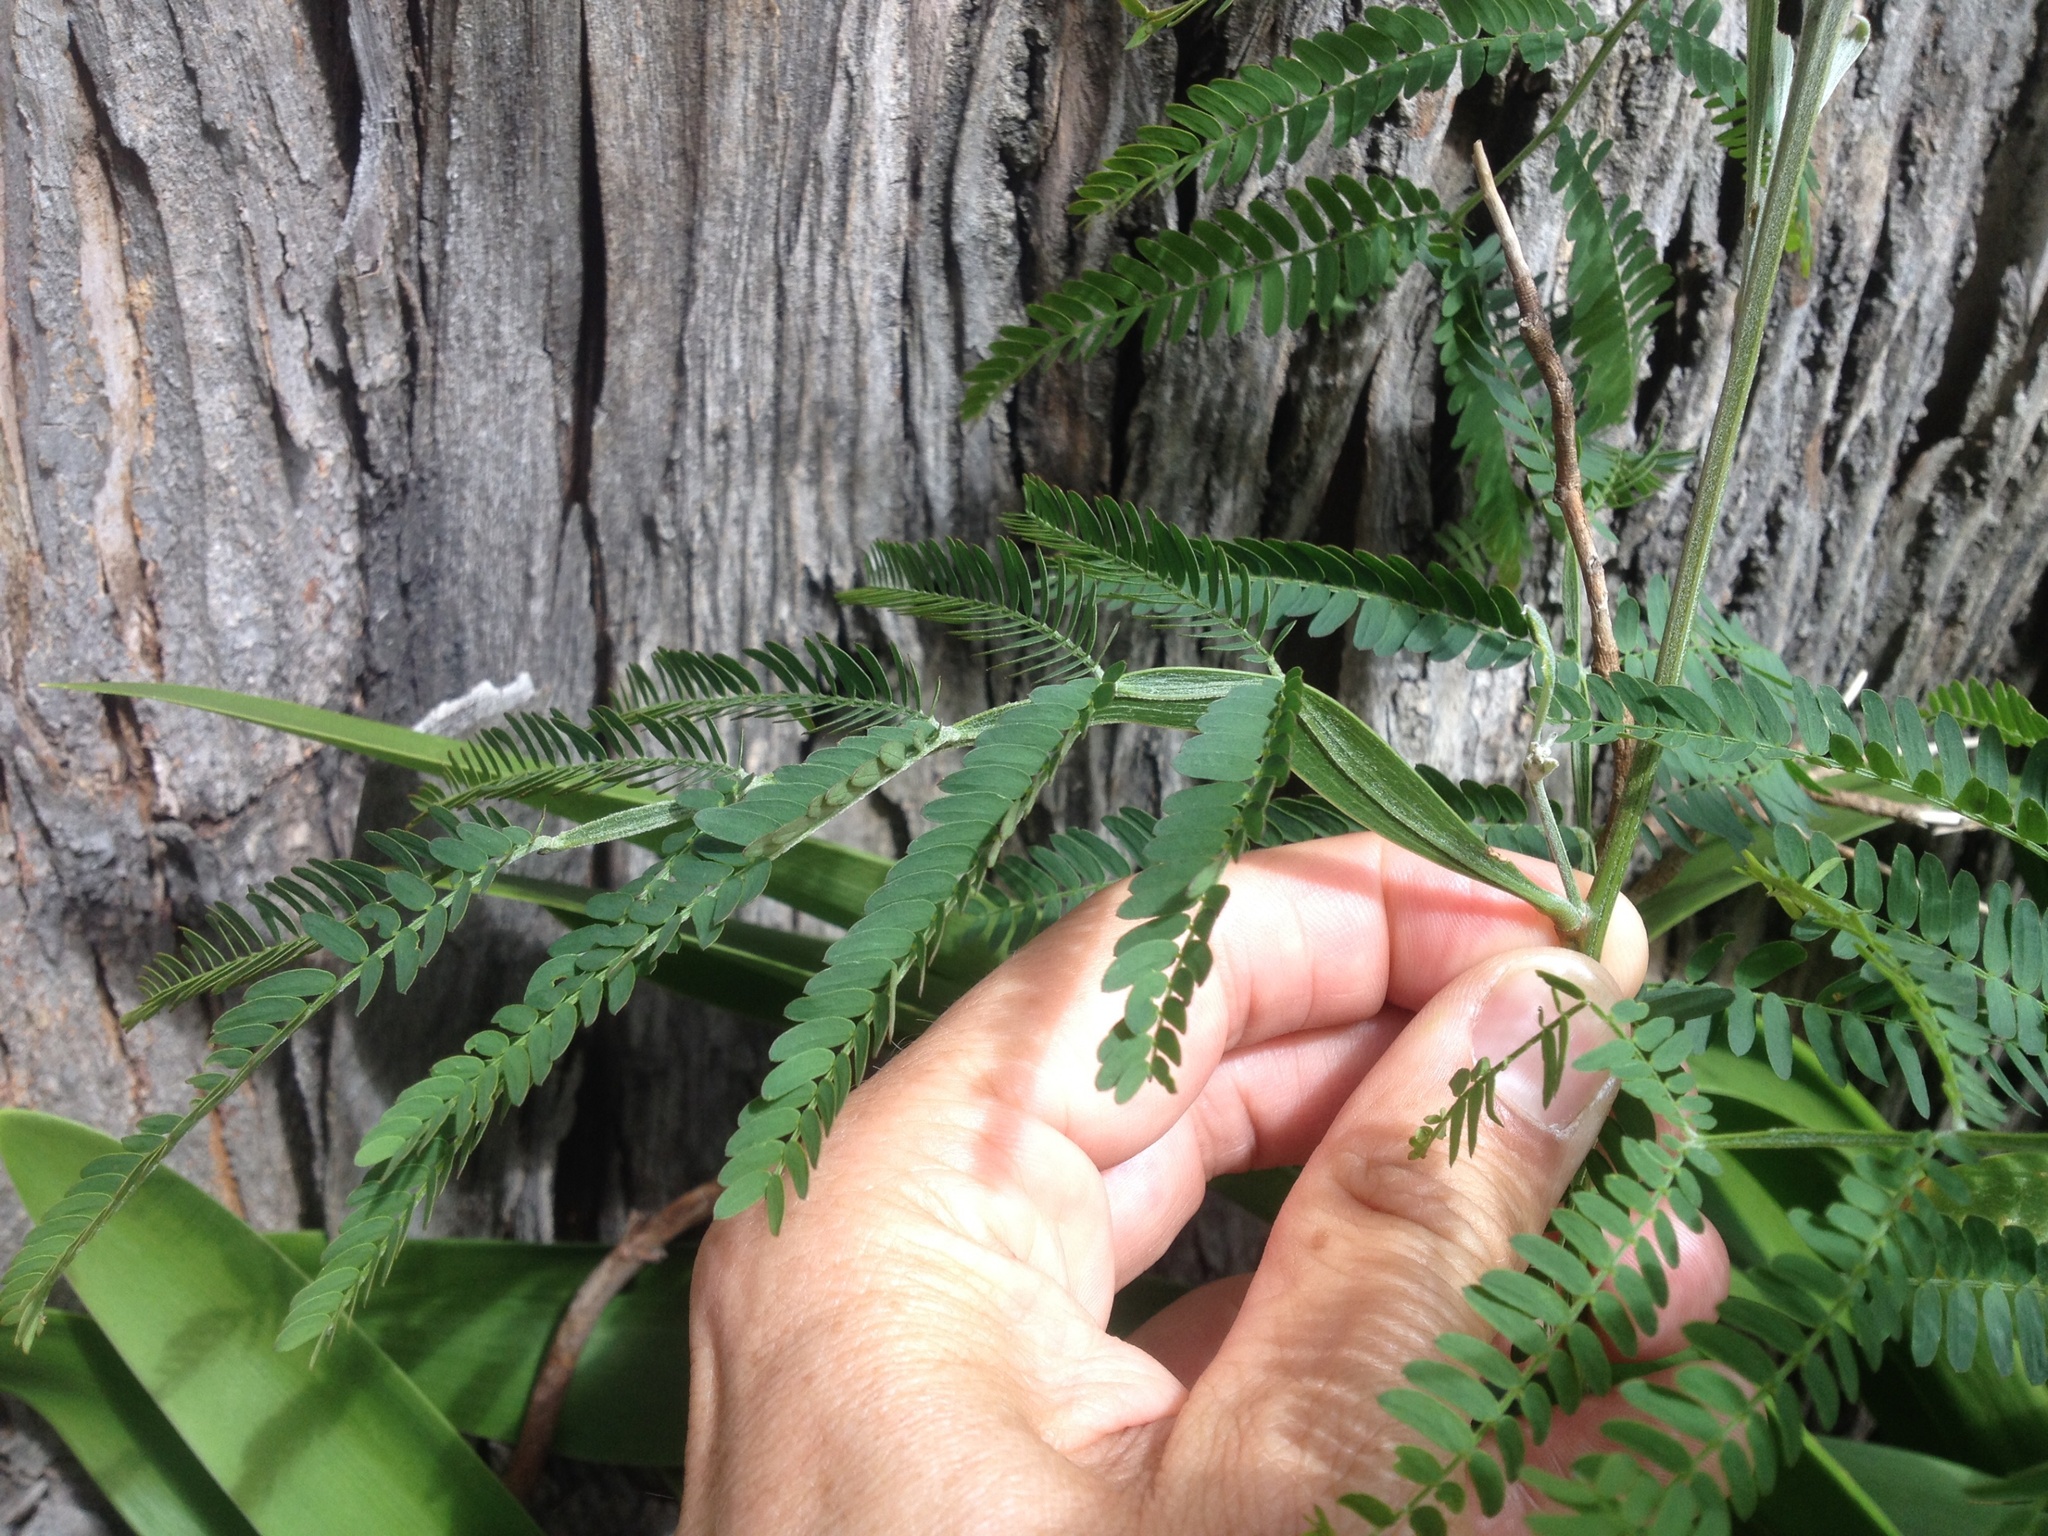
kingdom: Plantae
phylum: Tracheophyta
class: Magnoliopsida
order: Fabales
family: Fabaceae
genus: Acacia
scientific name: Acacia melanoxylon
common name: Blackwood
